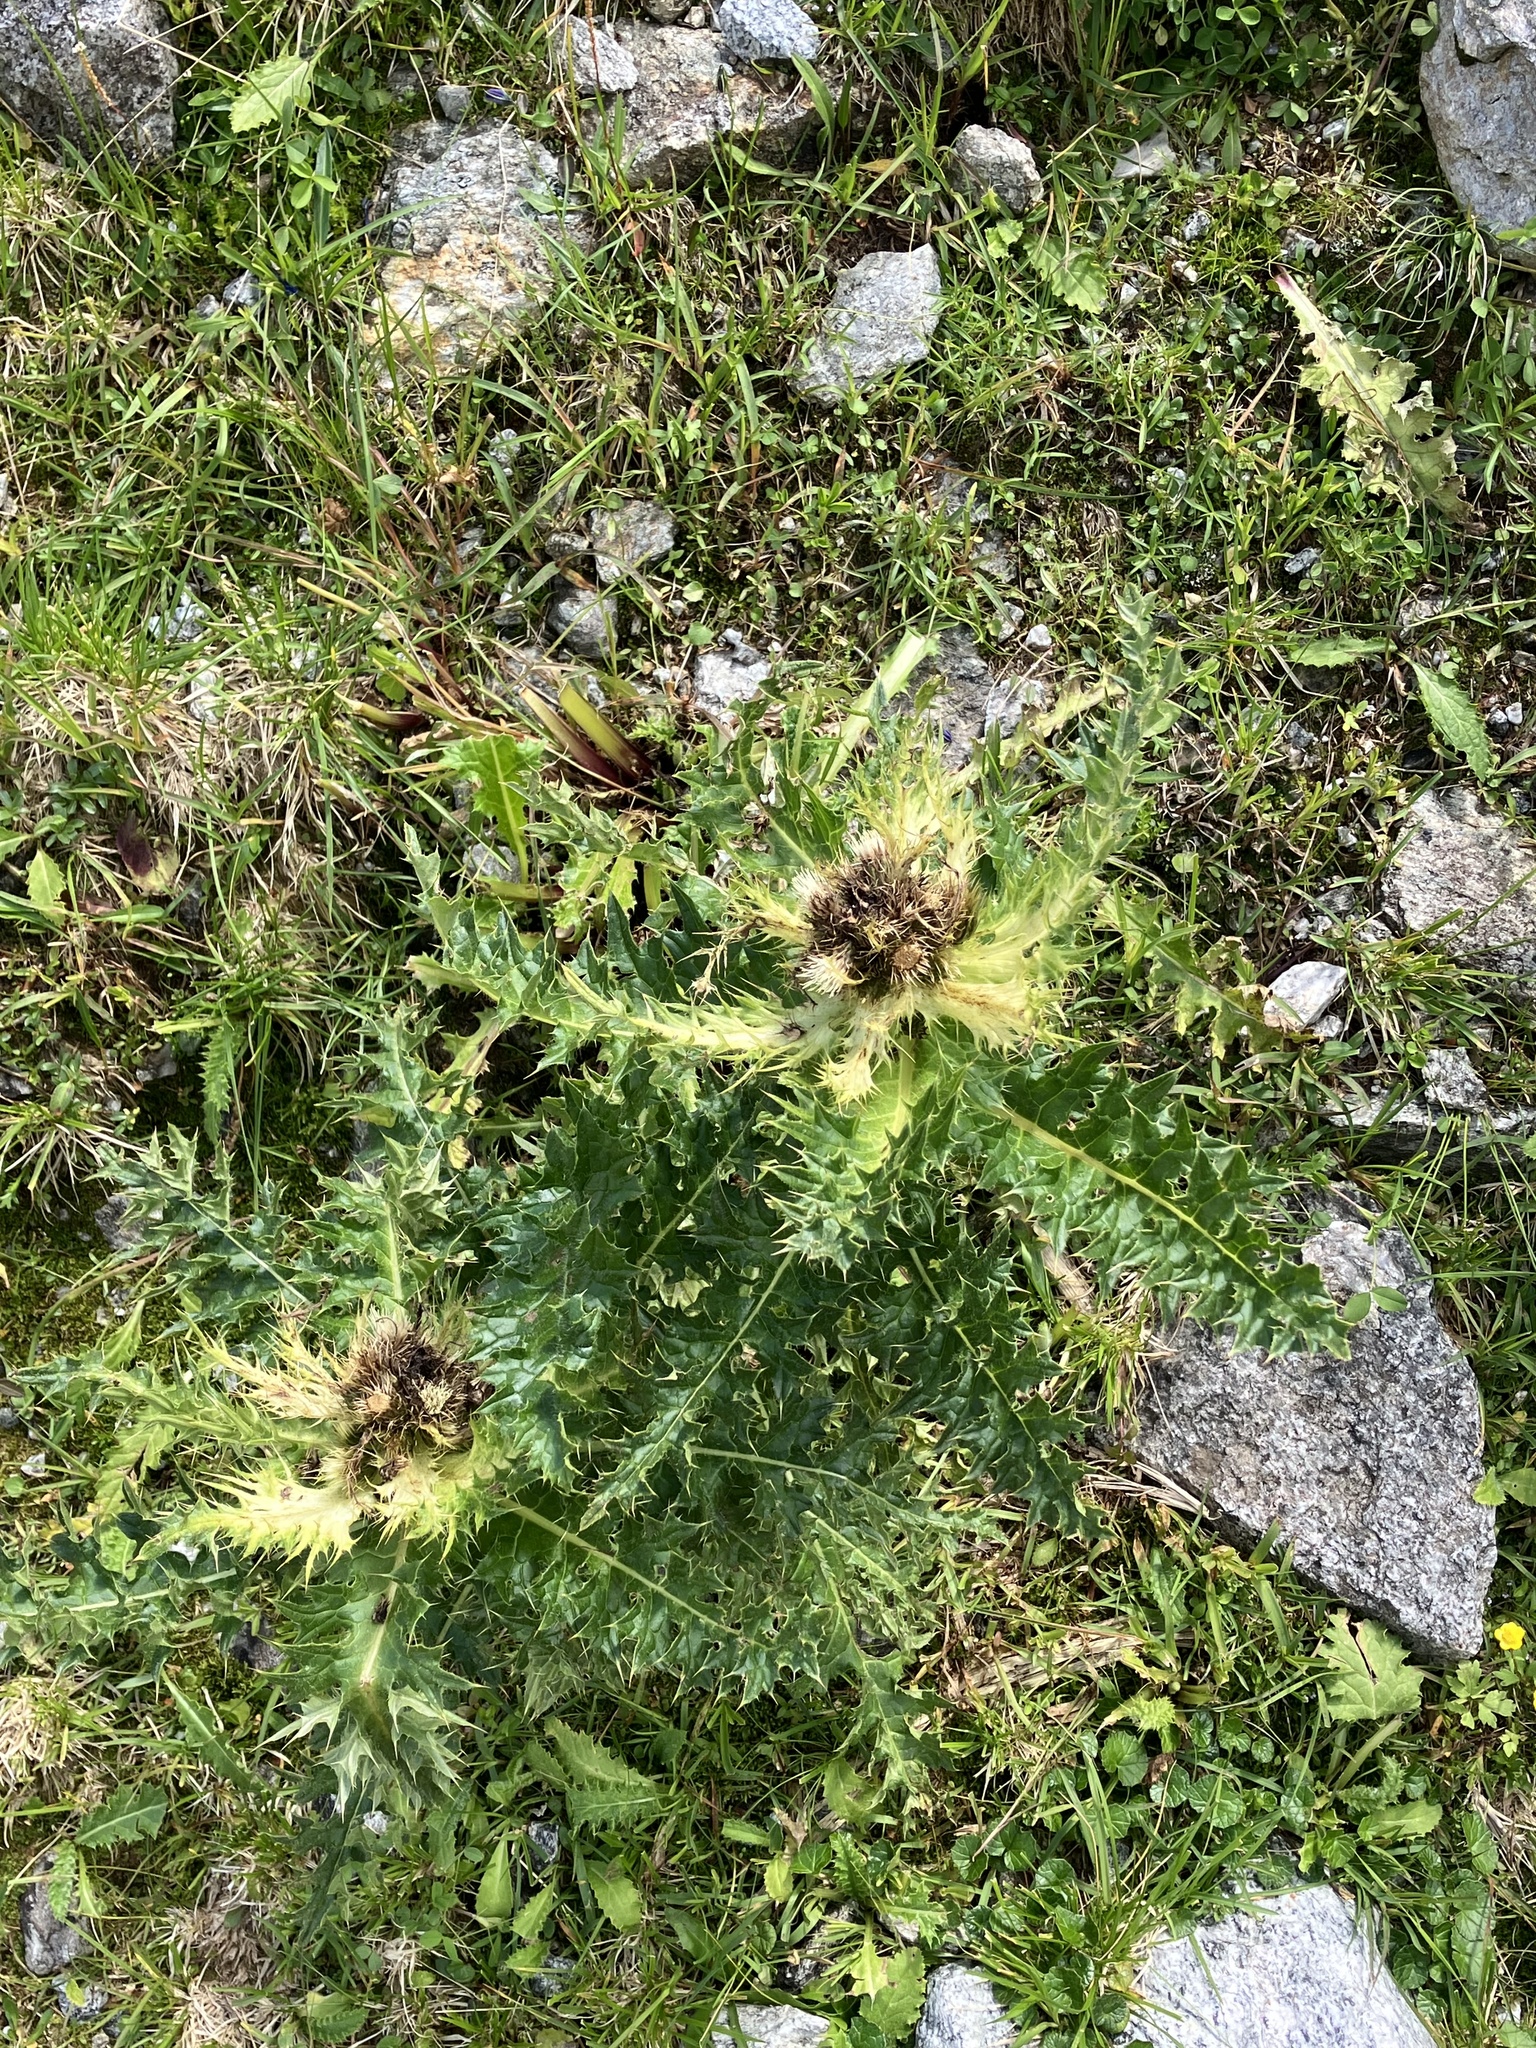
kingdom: Plantae
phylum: Tracheophyta
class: Magnoliopsida
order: Asterales
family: Asteraceae
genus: Cirsium
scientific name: Cirsium spinosissimum
